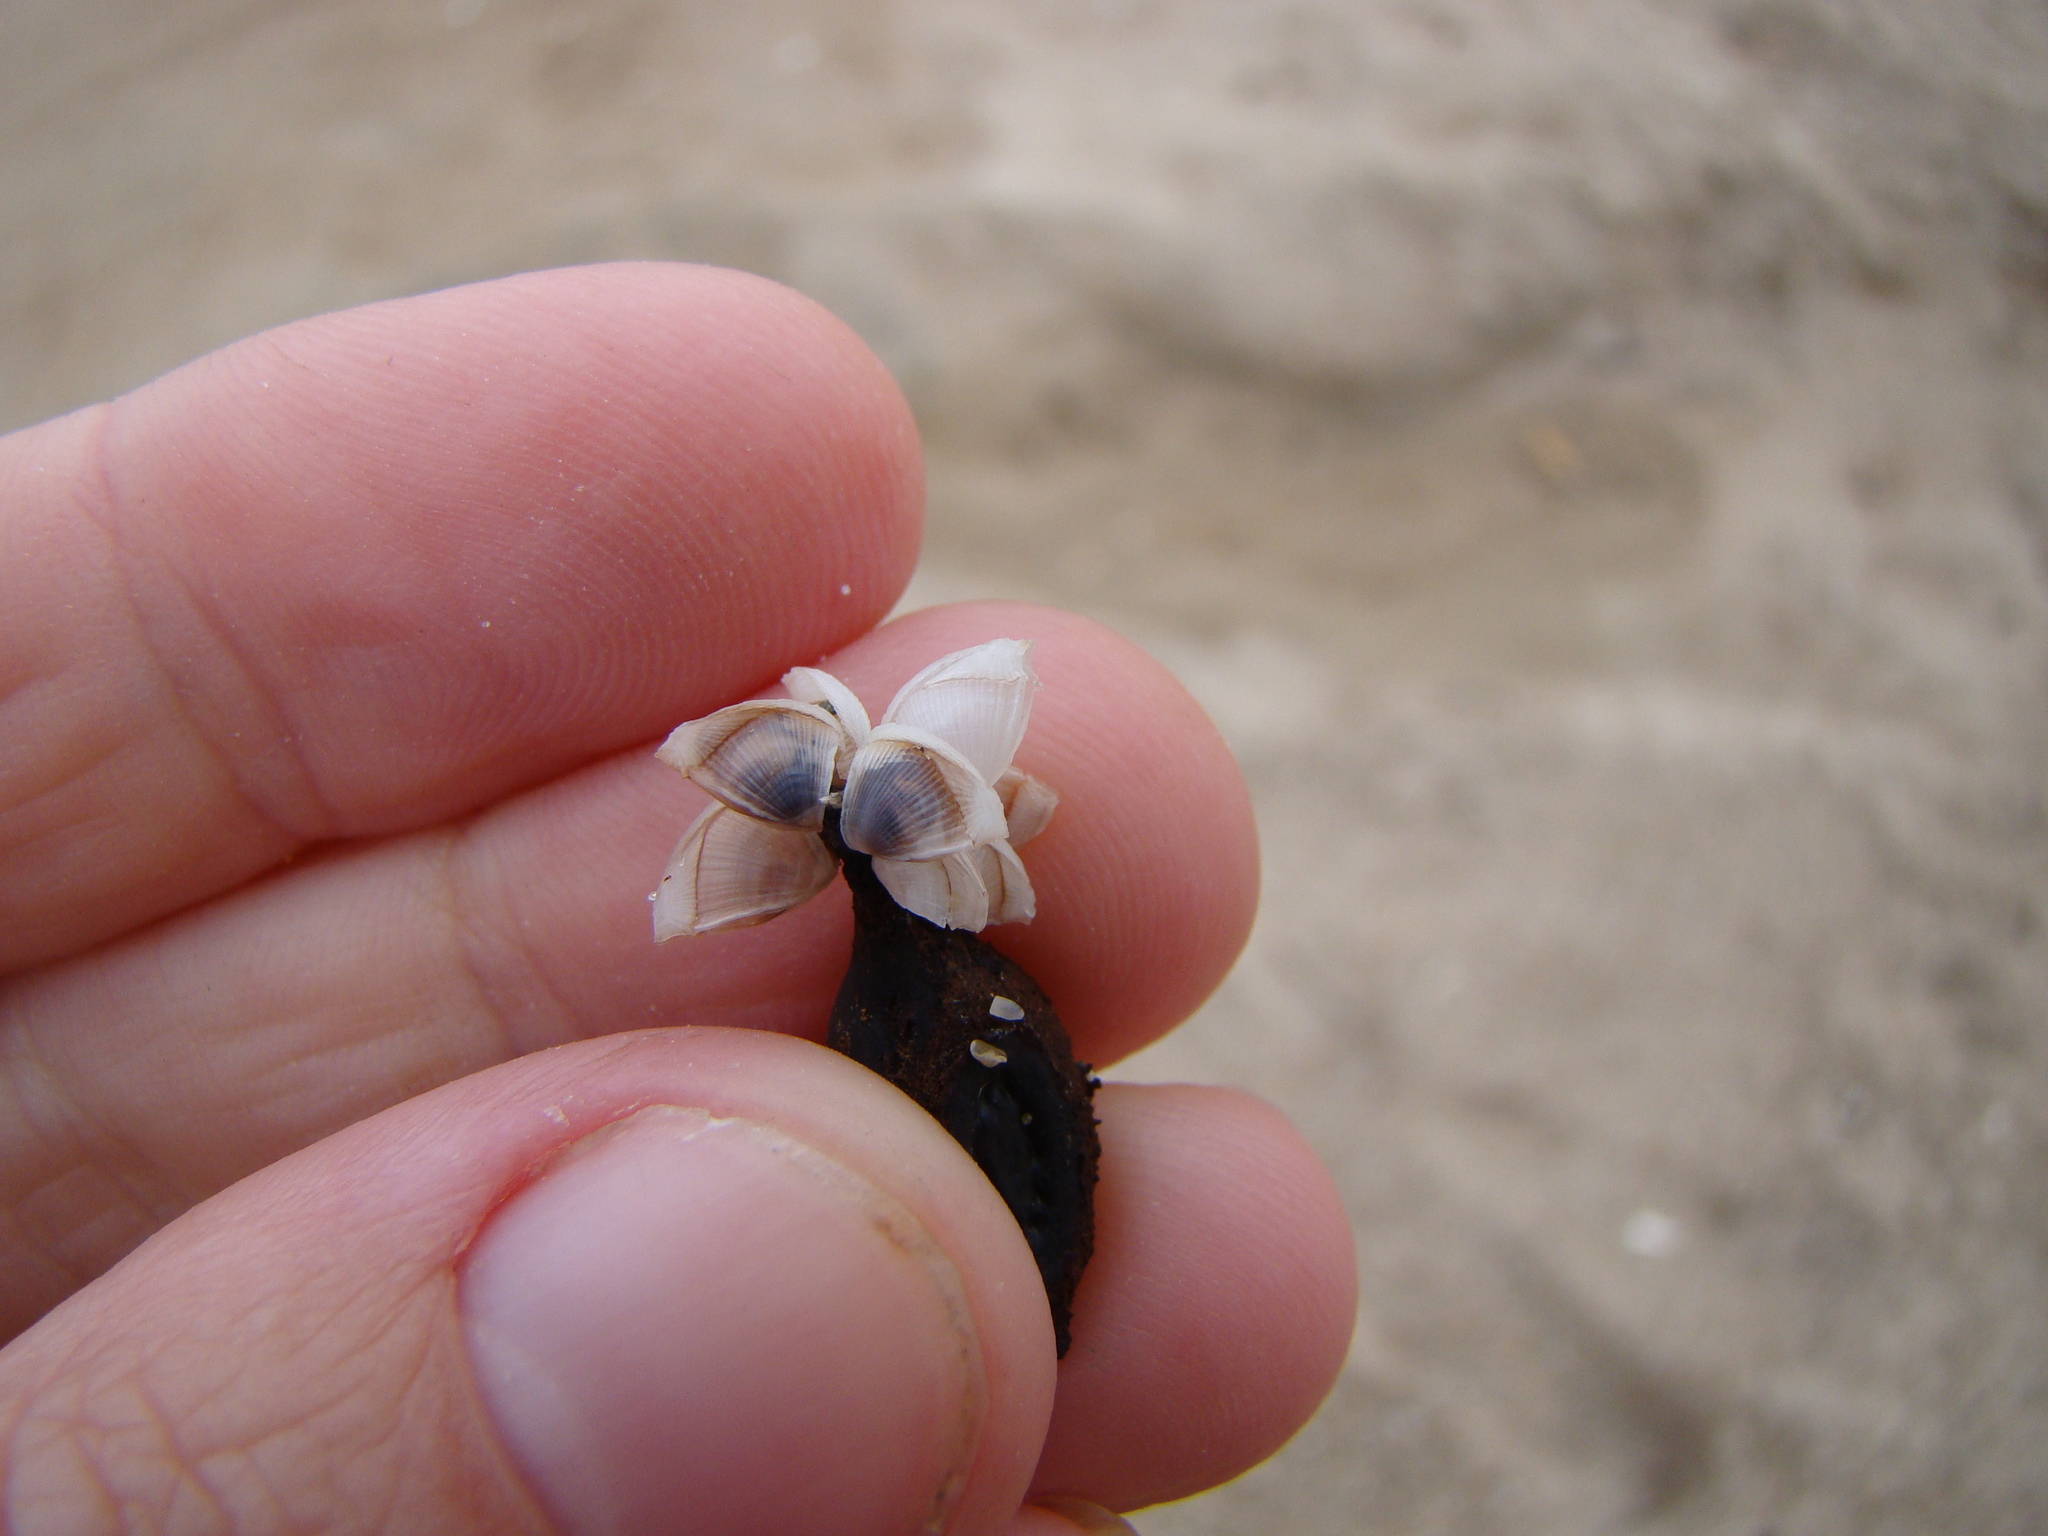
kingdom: Animalia
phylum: Arthropoda
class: Maxillopoda
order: Pedunculata
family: Lepadidae
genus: Lepas
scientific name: Lepas pectinata
